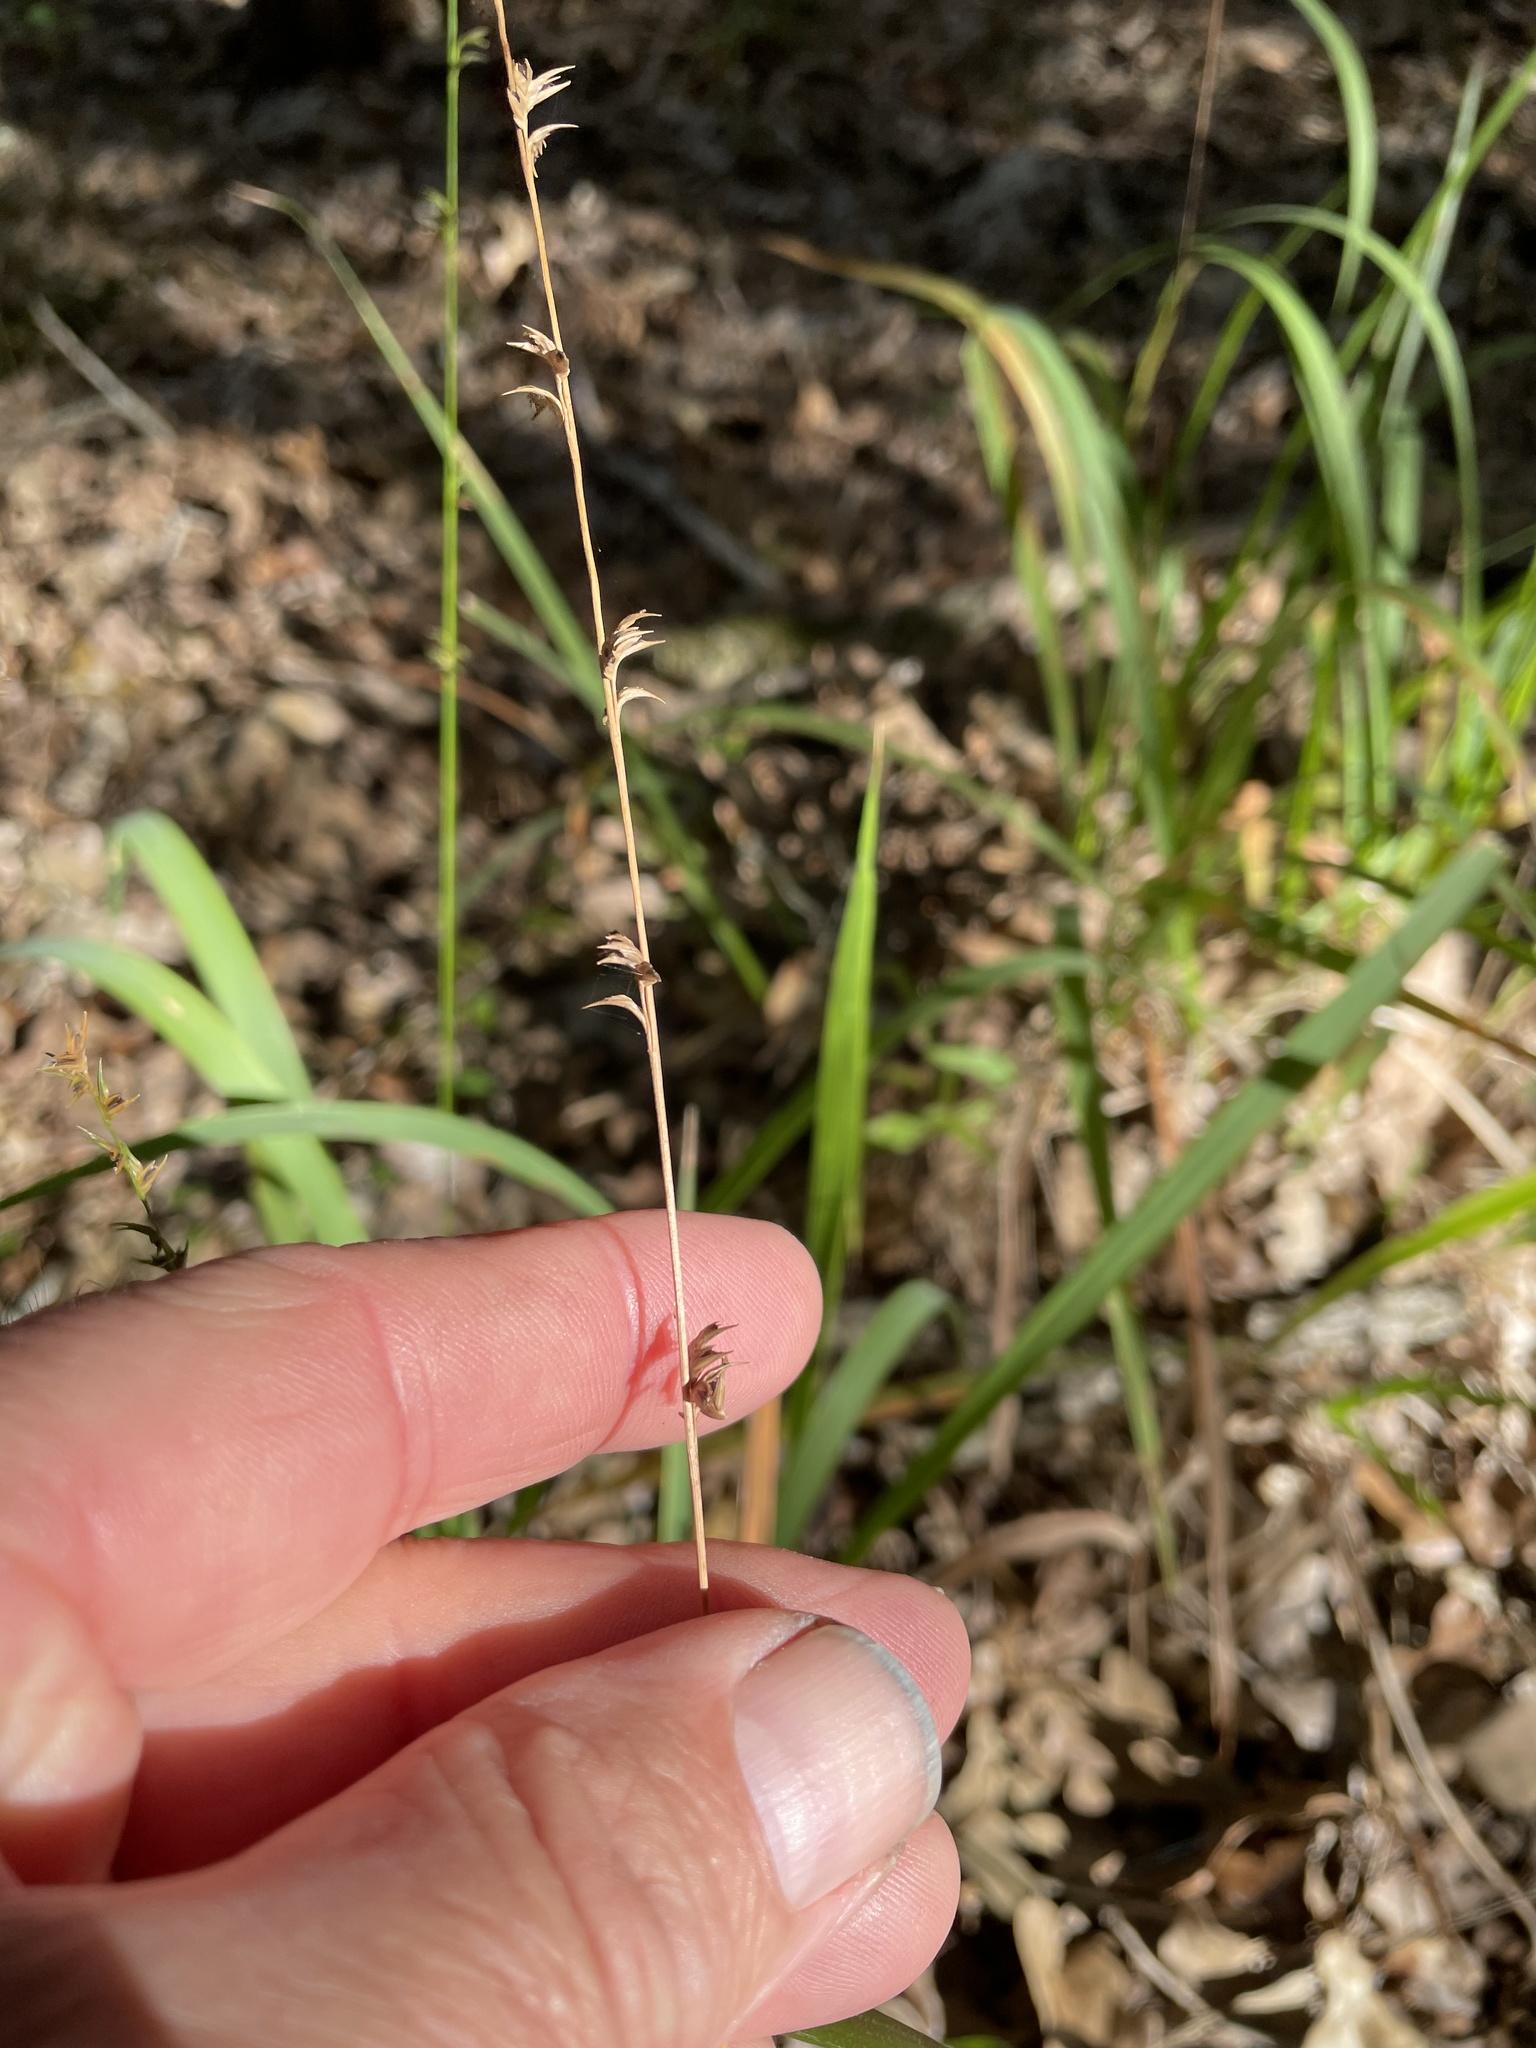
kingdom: Plantae
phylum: Tracheophyta
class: Liliopsida
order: Poales
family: Poaceae
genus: Chasmanthium
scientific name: Chasmanthium laxum
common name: Slender chasmanthium
